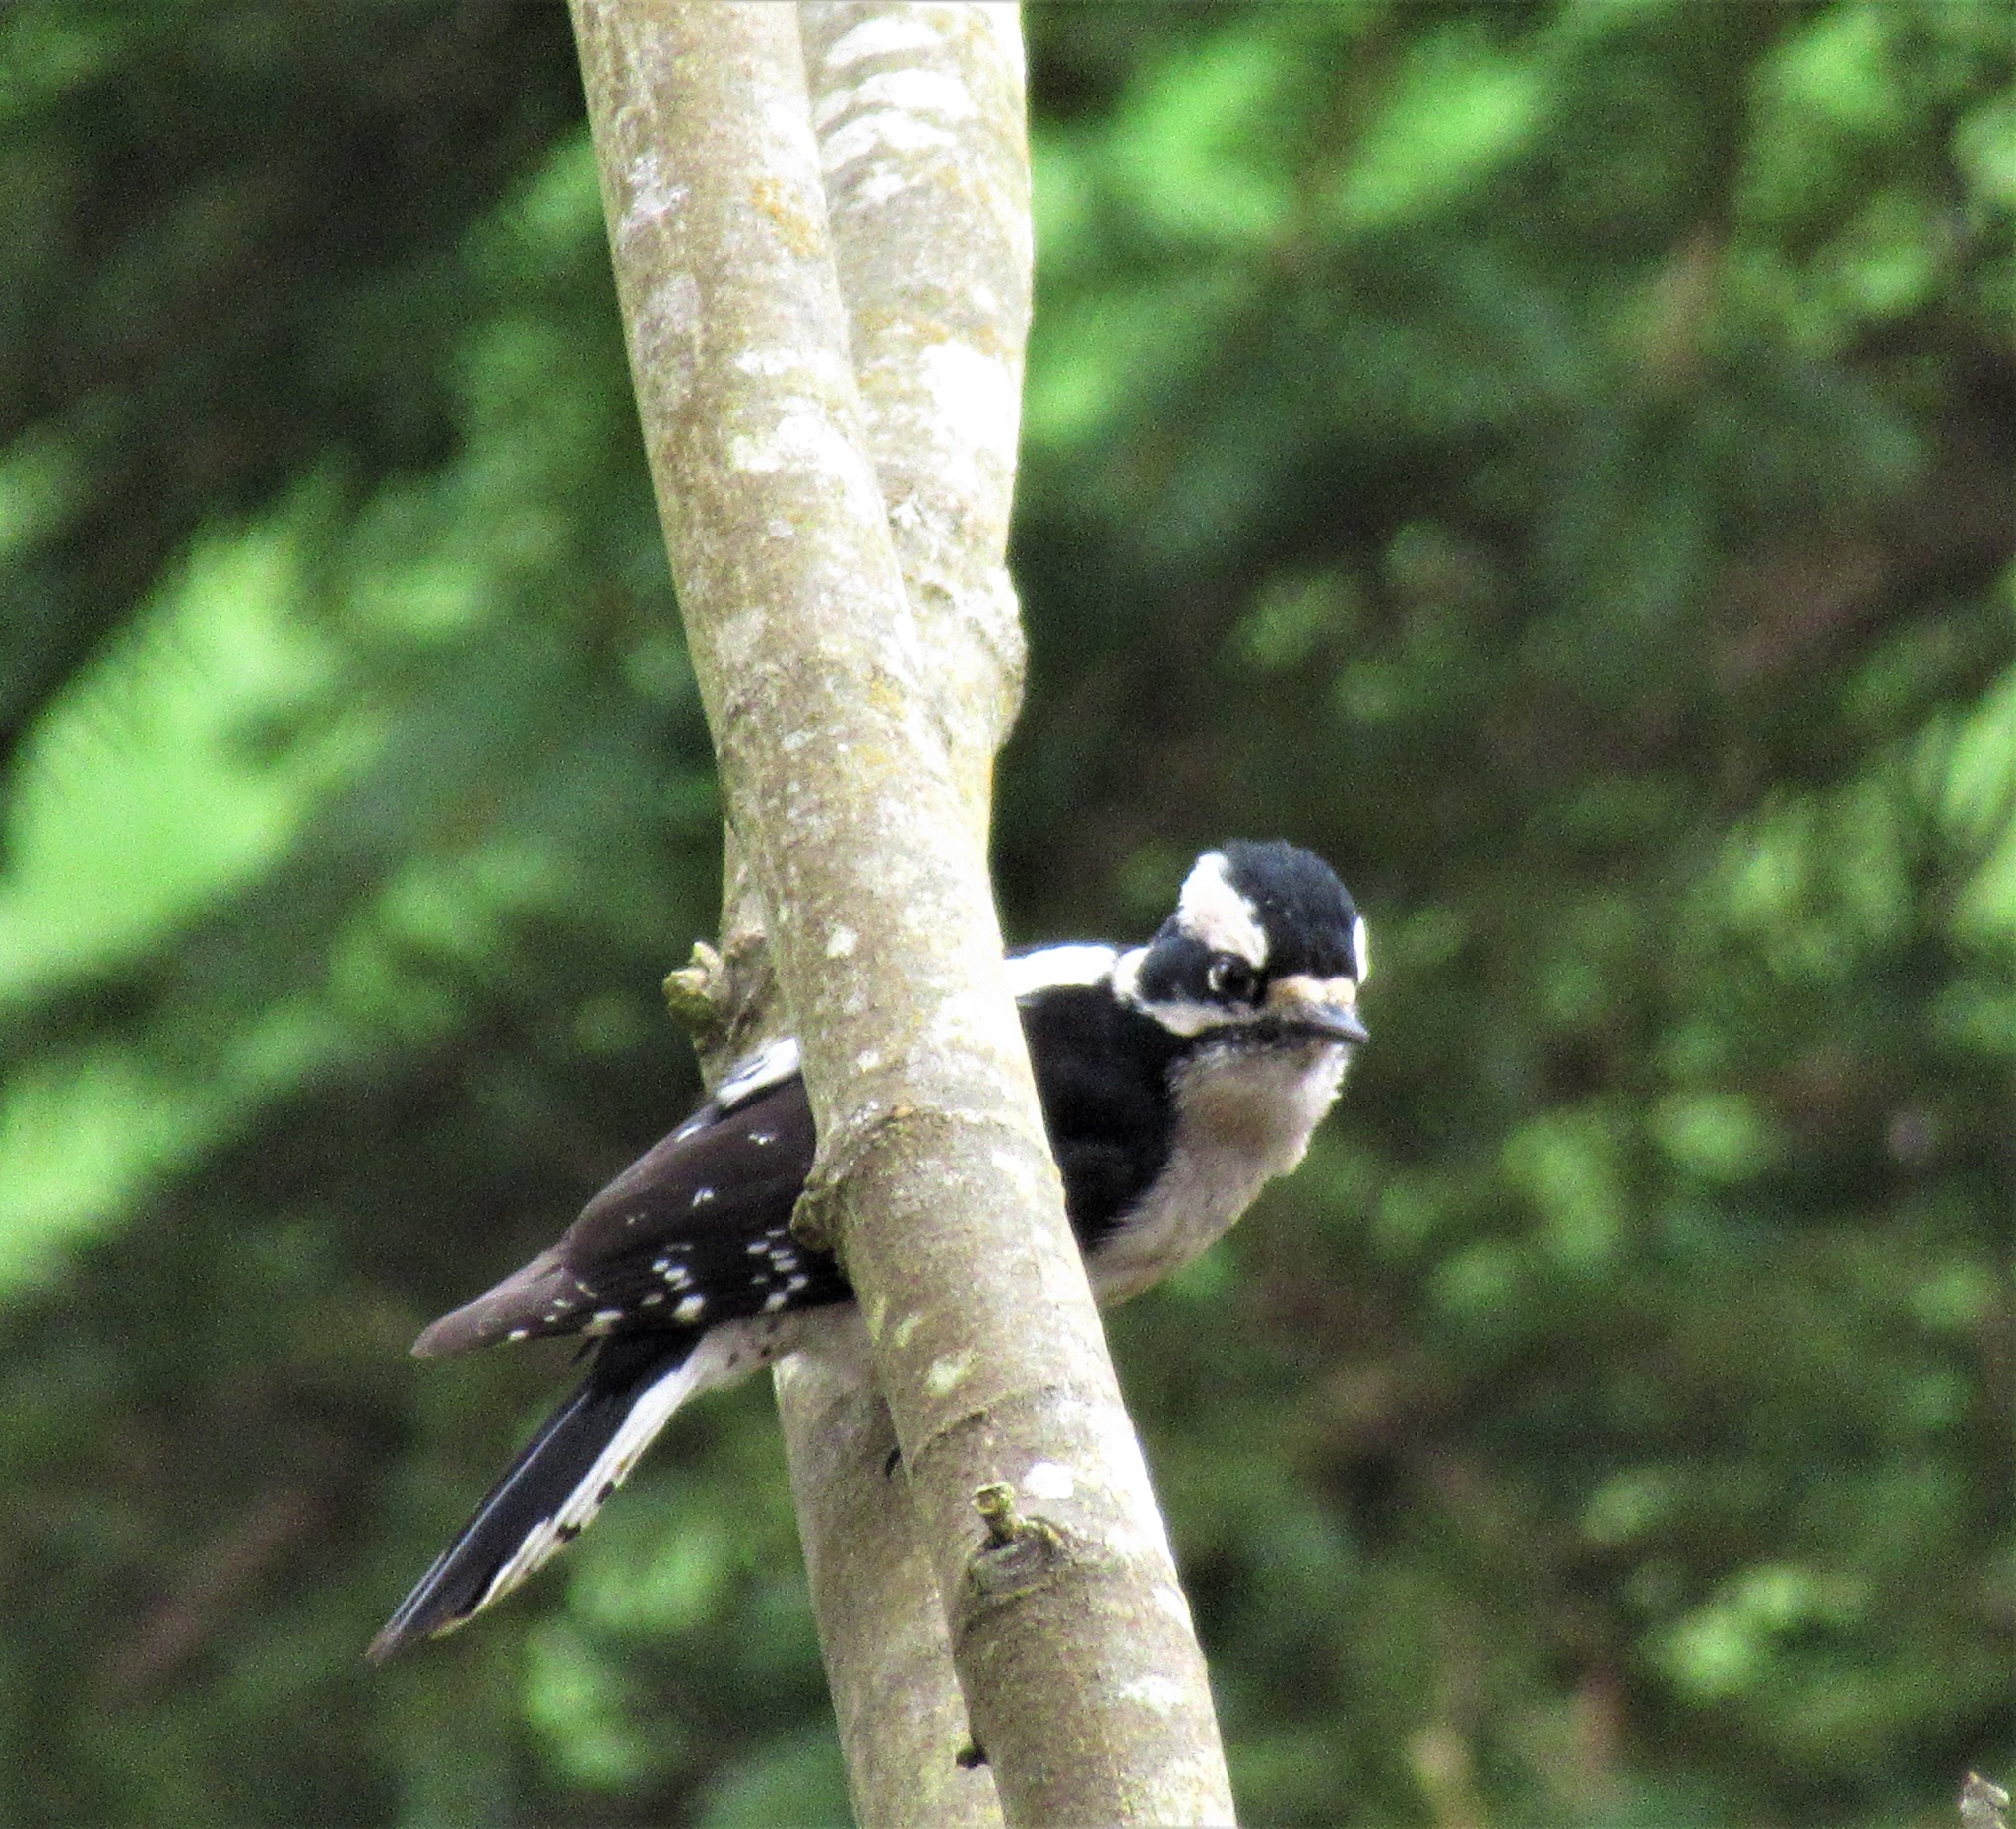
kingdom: Animalia
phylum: Chordata
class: Aves
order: Piciformes
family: Picidae
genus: Dryobates
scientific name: Dryobates pubescens
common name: Downy woodpecker
